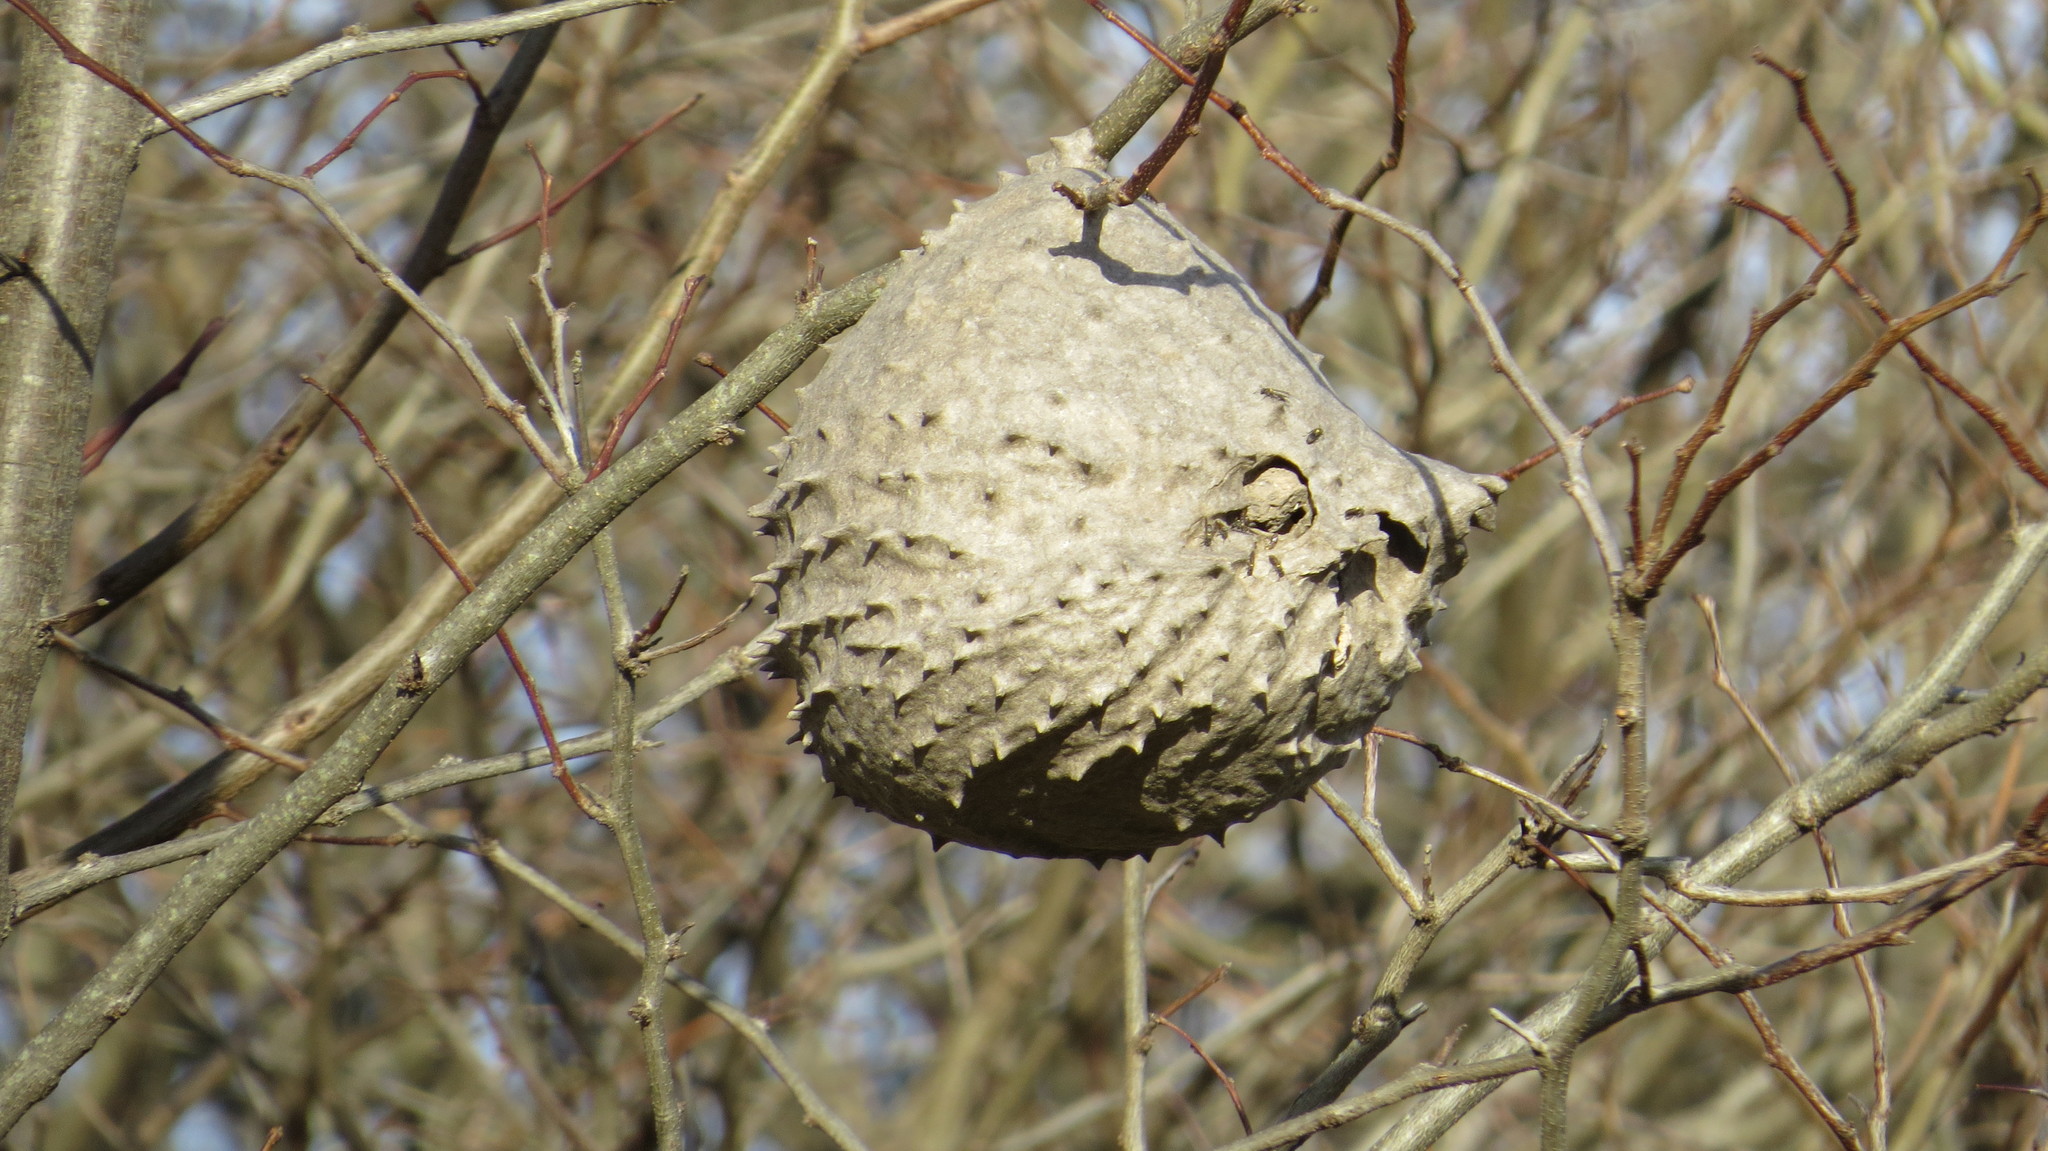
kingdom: Animalia
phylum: Arthropoda
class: Insecta
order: Hymenoptera
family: Eumenidae
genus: Polybia
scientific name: Polybia scutellaris
